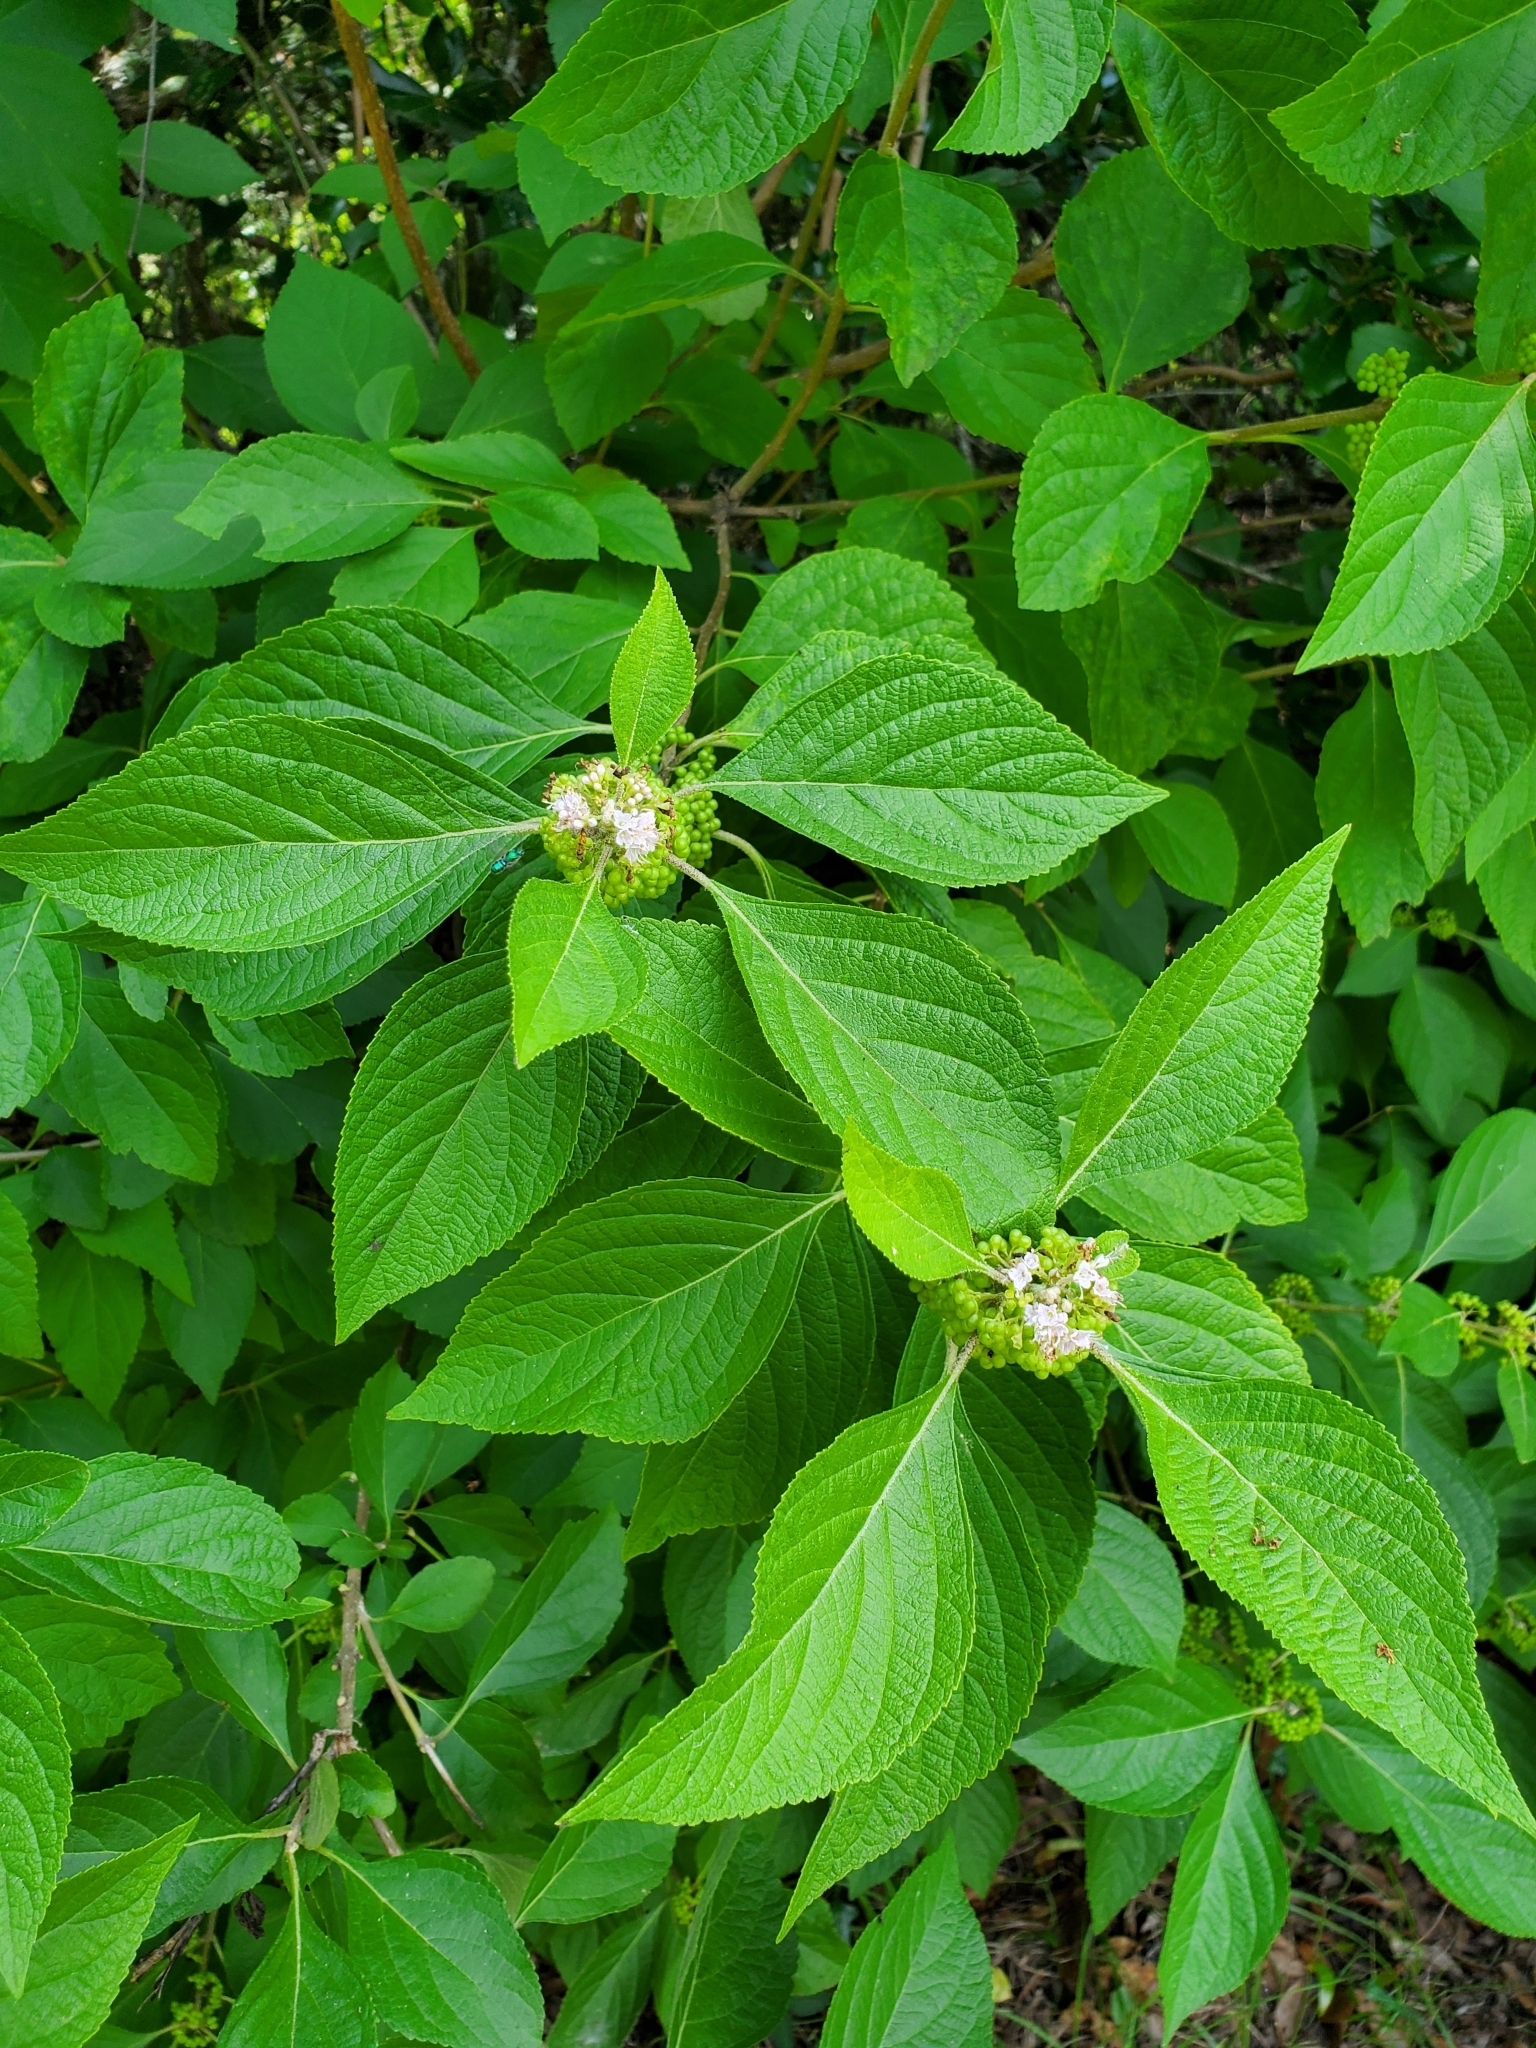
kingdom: Plantae
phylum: Tracheophyta
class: Magnoliopsida
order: Lamiales
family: Lamiaceae
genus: Callicarpa
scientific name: Callicarpa americana
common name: American beautyberry
